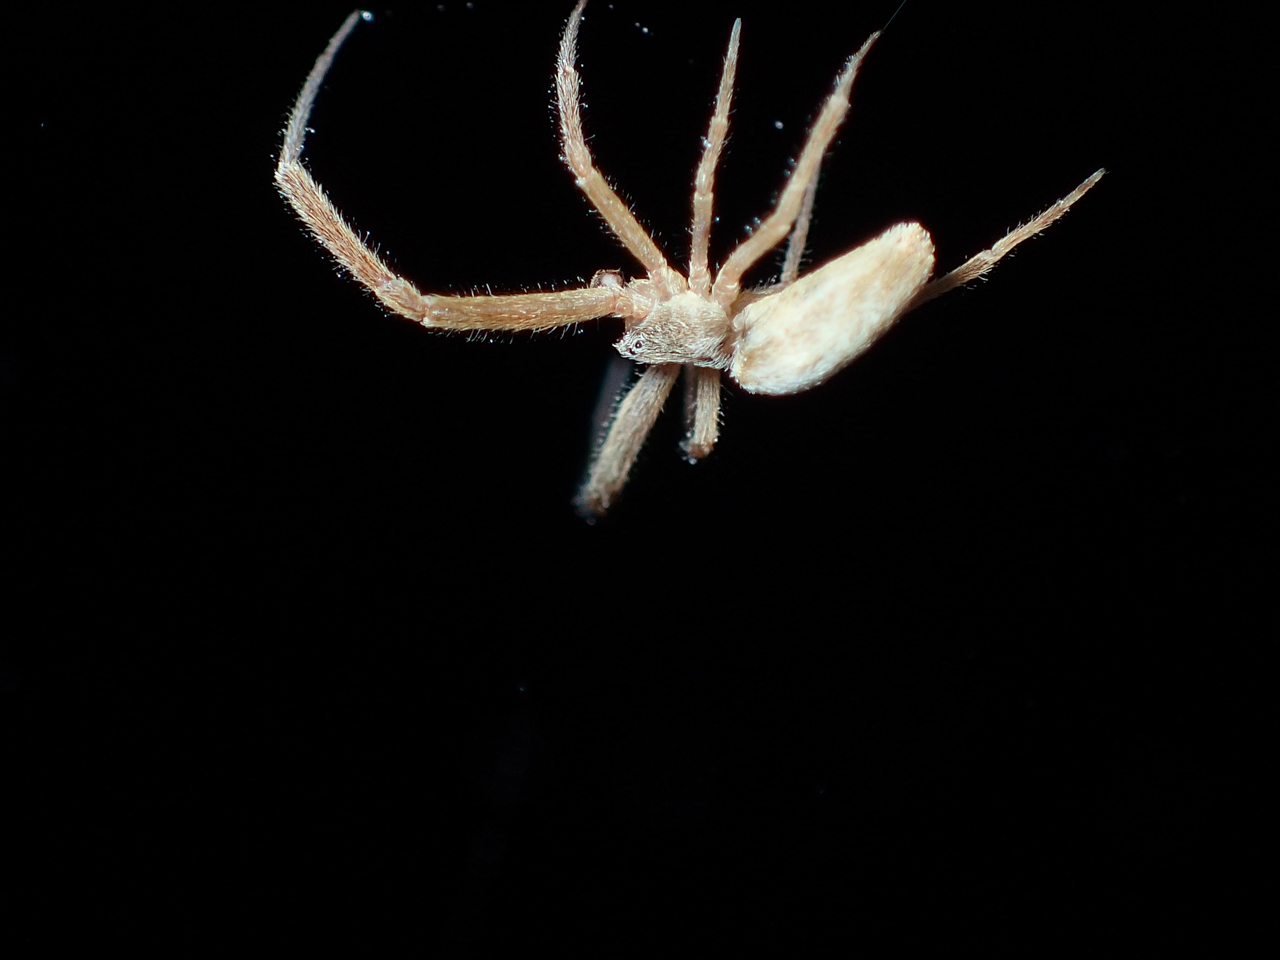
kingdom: Animalia
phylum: Arthropoda
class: Arachnida
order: Araneae
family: Uloboridae
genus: Uloborus
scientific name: Uloborus glomosus
